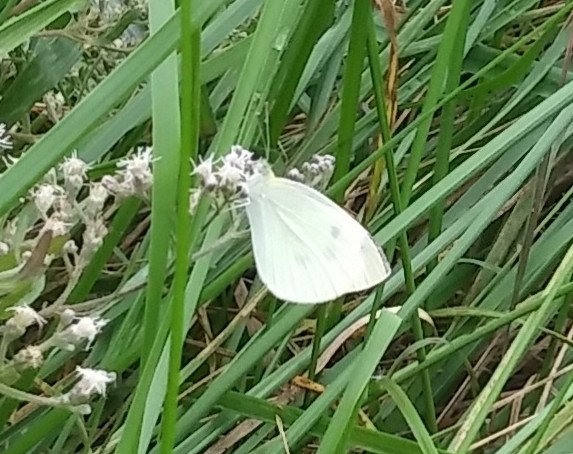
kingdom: Animalia
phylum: Arthropoda
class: Insecta
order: Lepidoptera
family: Pieridae
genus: Pieris
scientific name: Pieris rapae
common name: Small white
